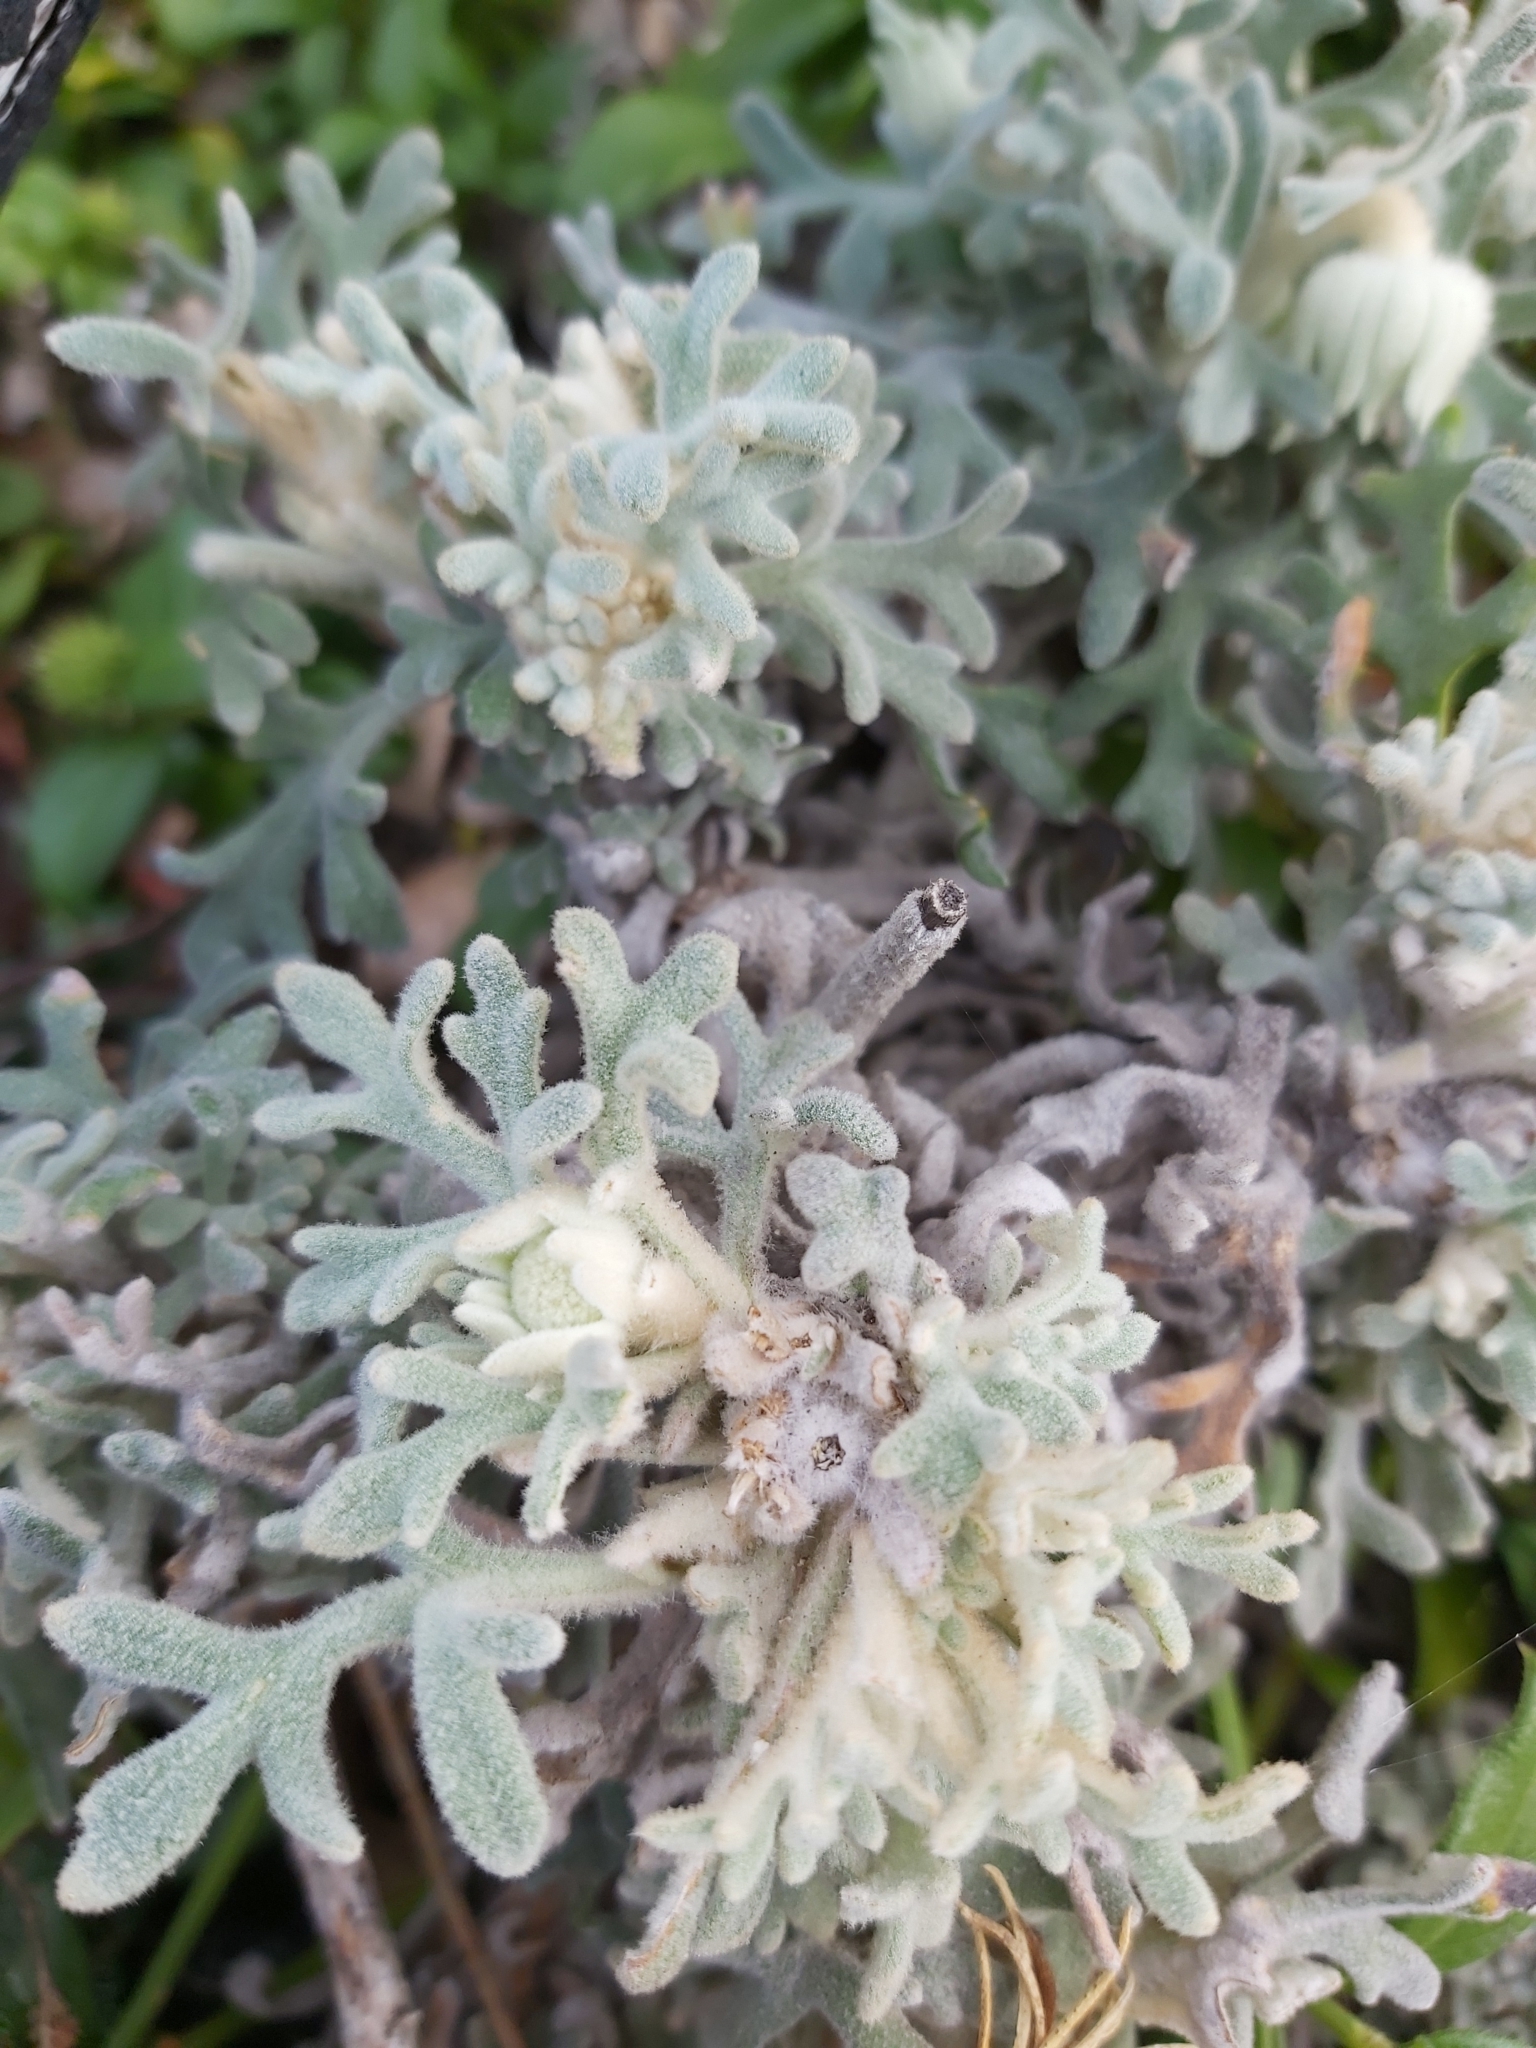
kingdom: Plantae
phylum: Tracheophyta
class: Magnoliopsida
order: Apiales
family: Apiaceae
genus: Actinotus
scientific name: Actinotus helianthi
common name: Flannel-flower
